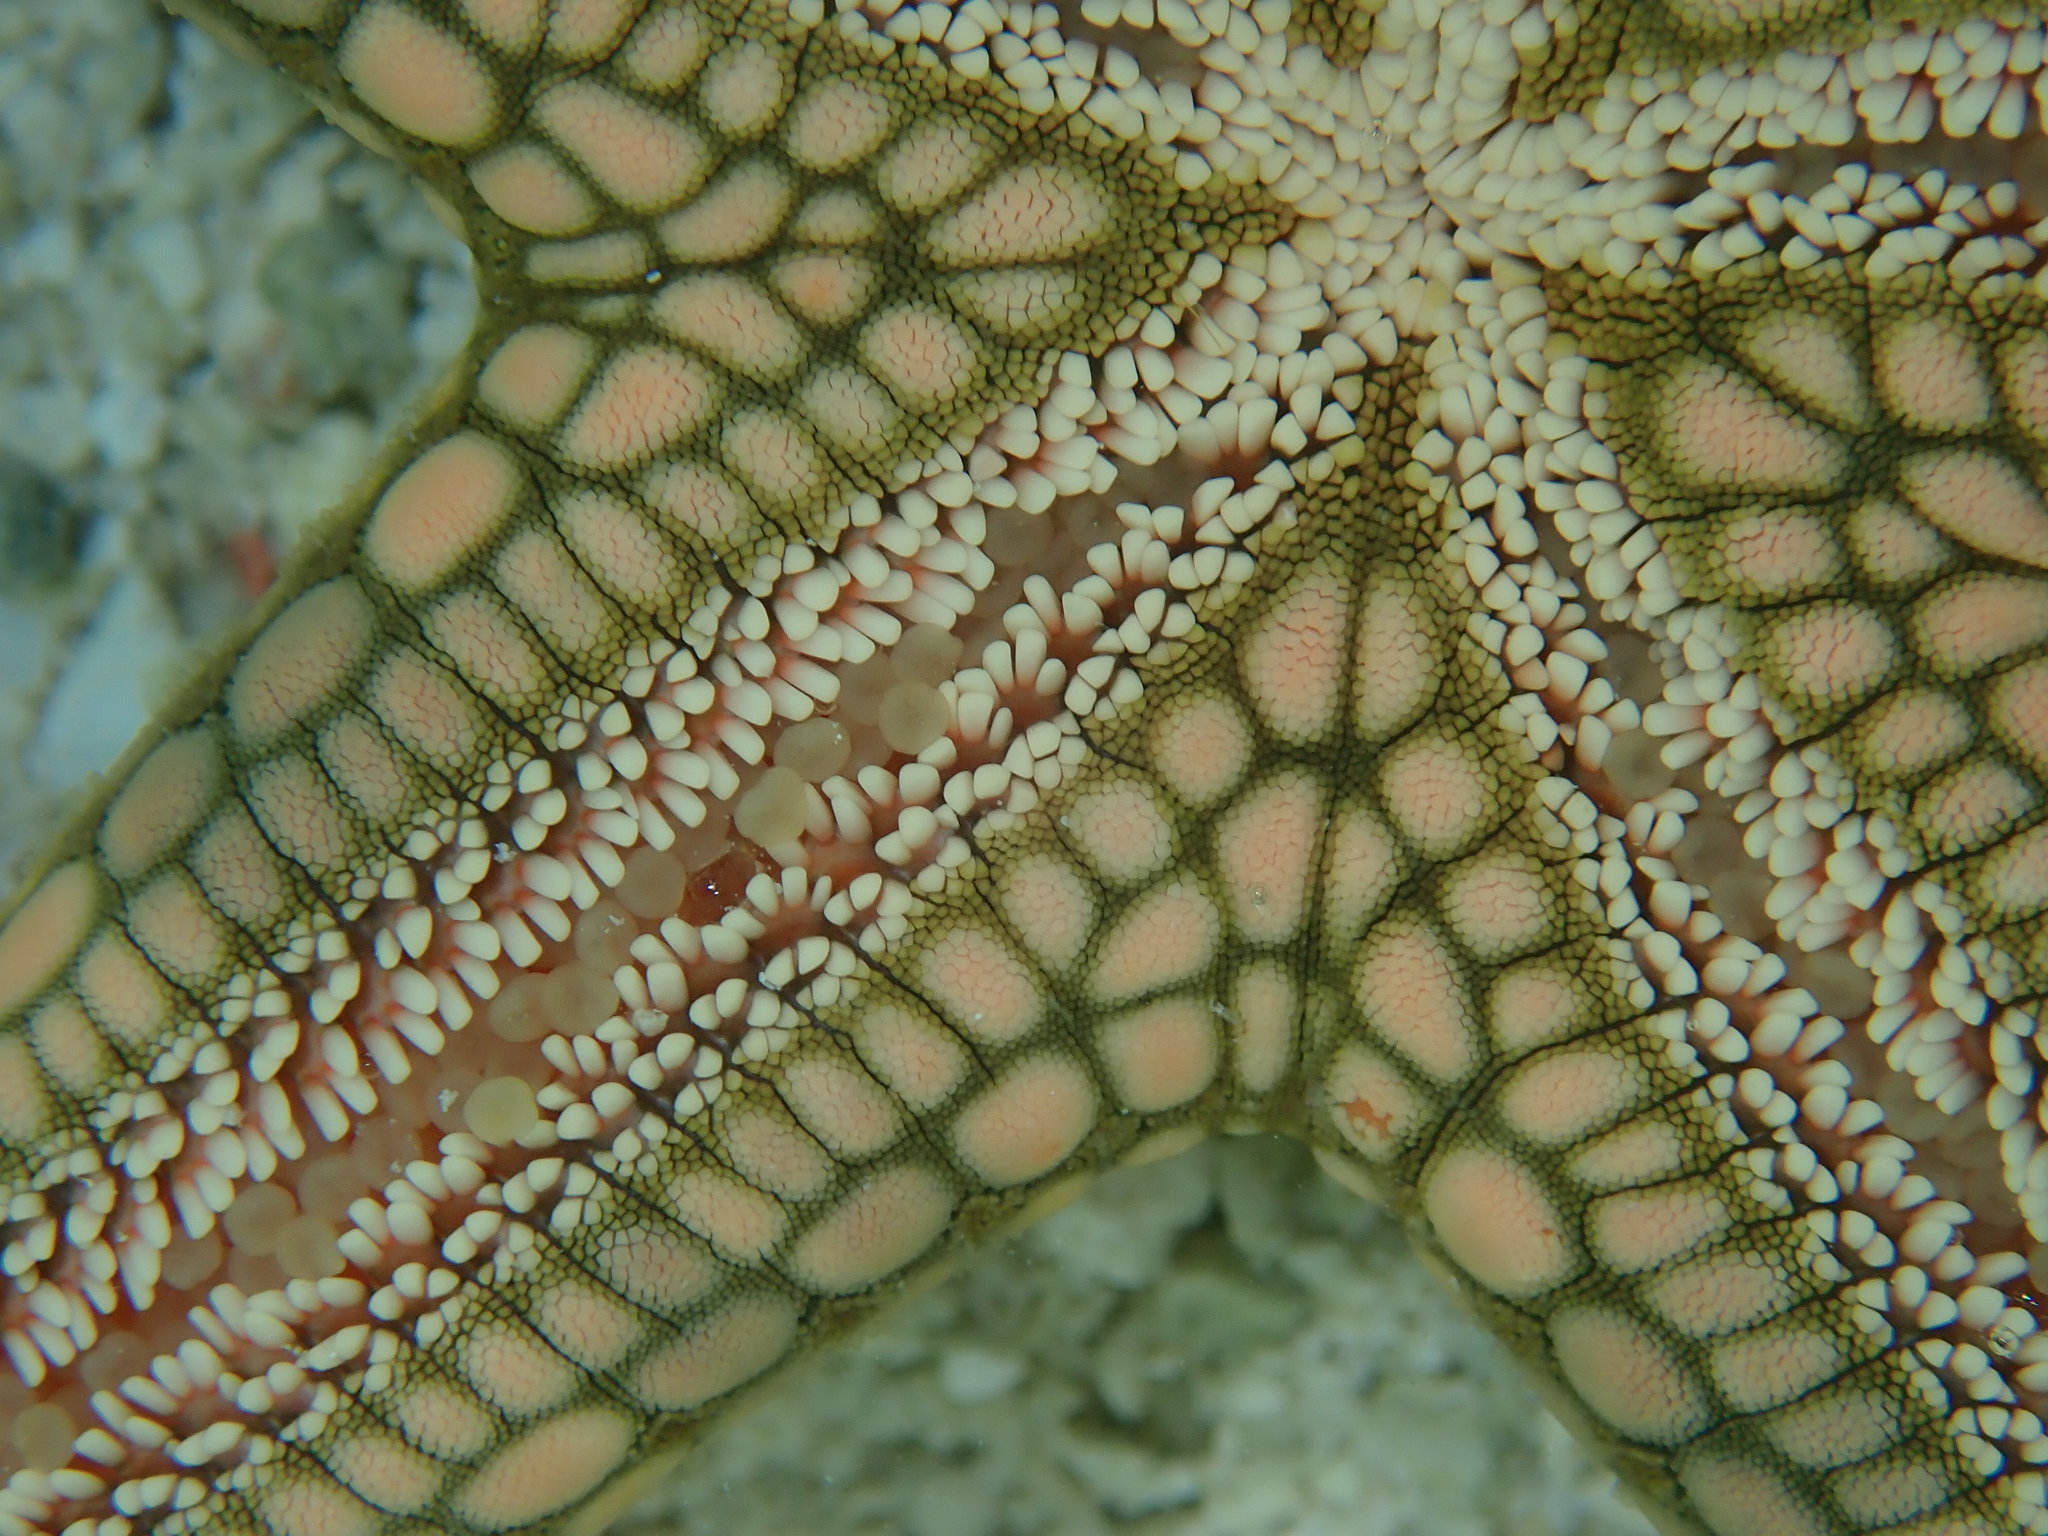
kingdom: Animalia
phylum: Echinodermata
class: Asteroidea
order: Valvatida
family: Ophidiasteridae
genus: Nardoa
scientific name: Nardoa novaecaledoniae
